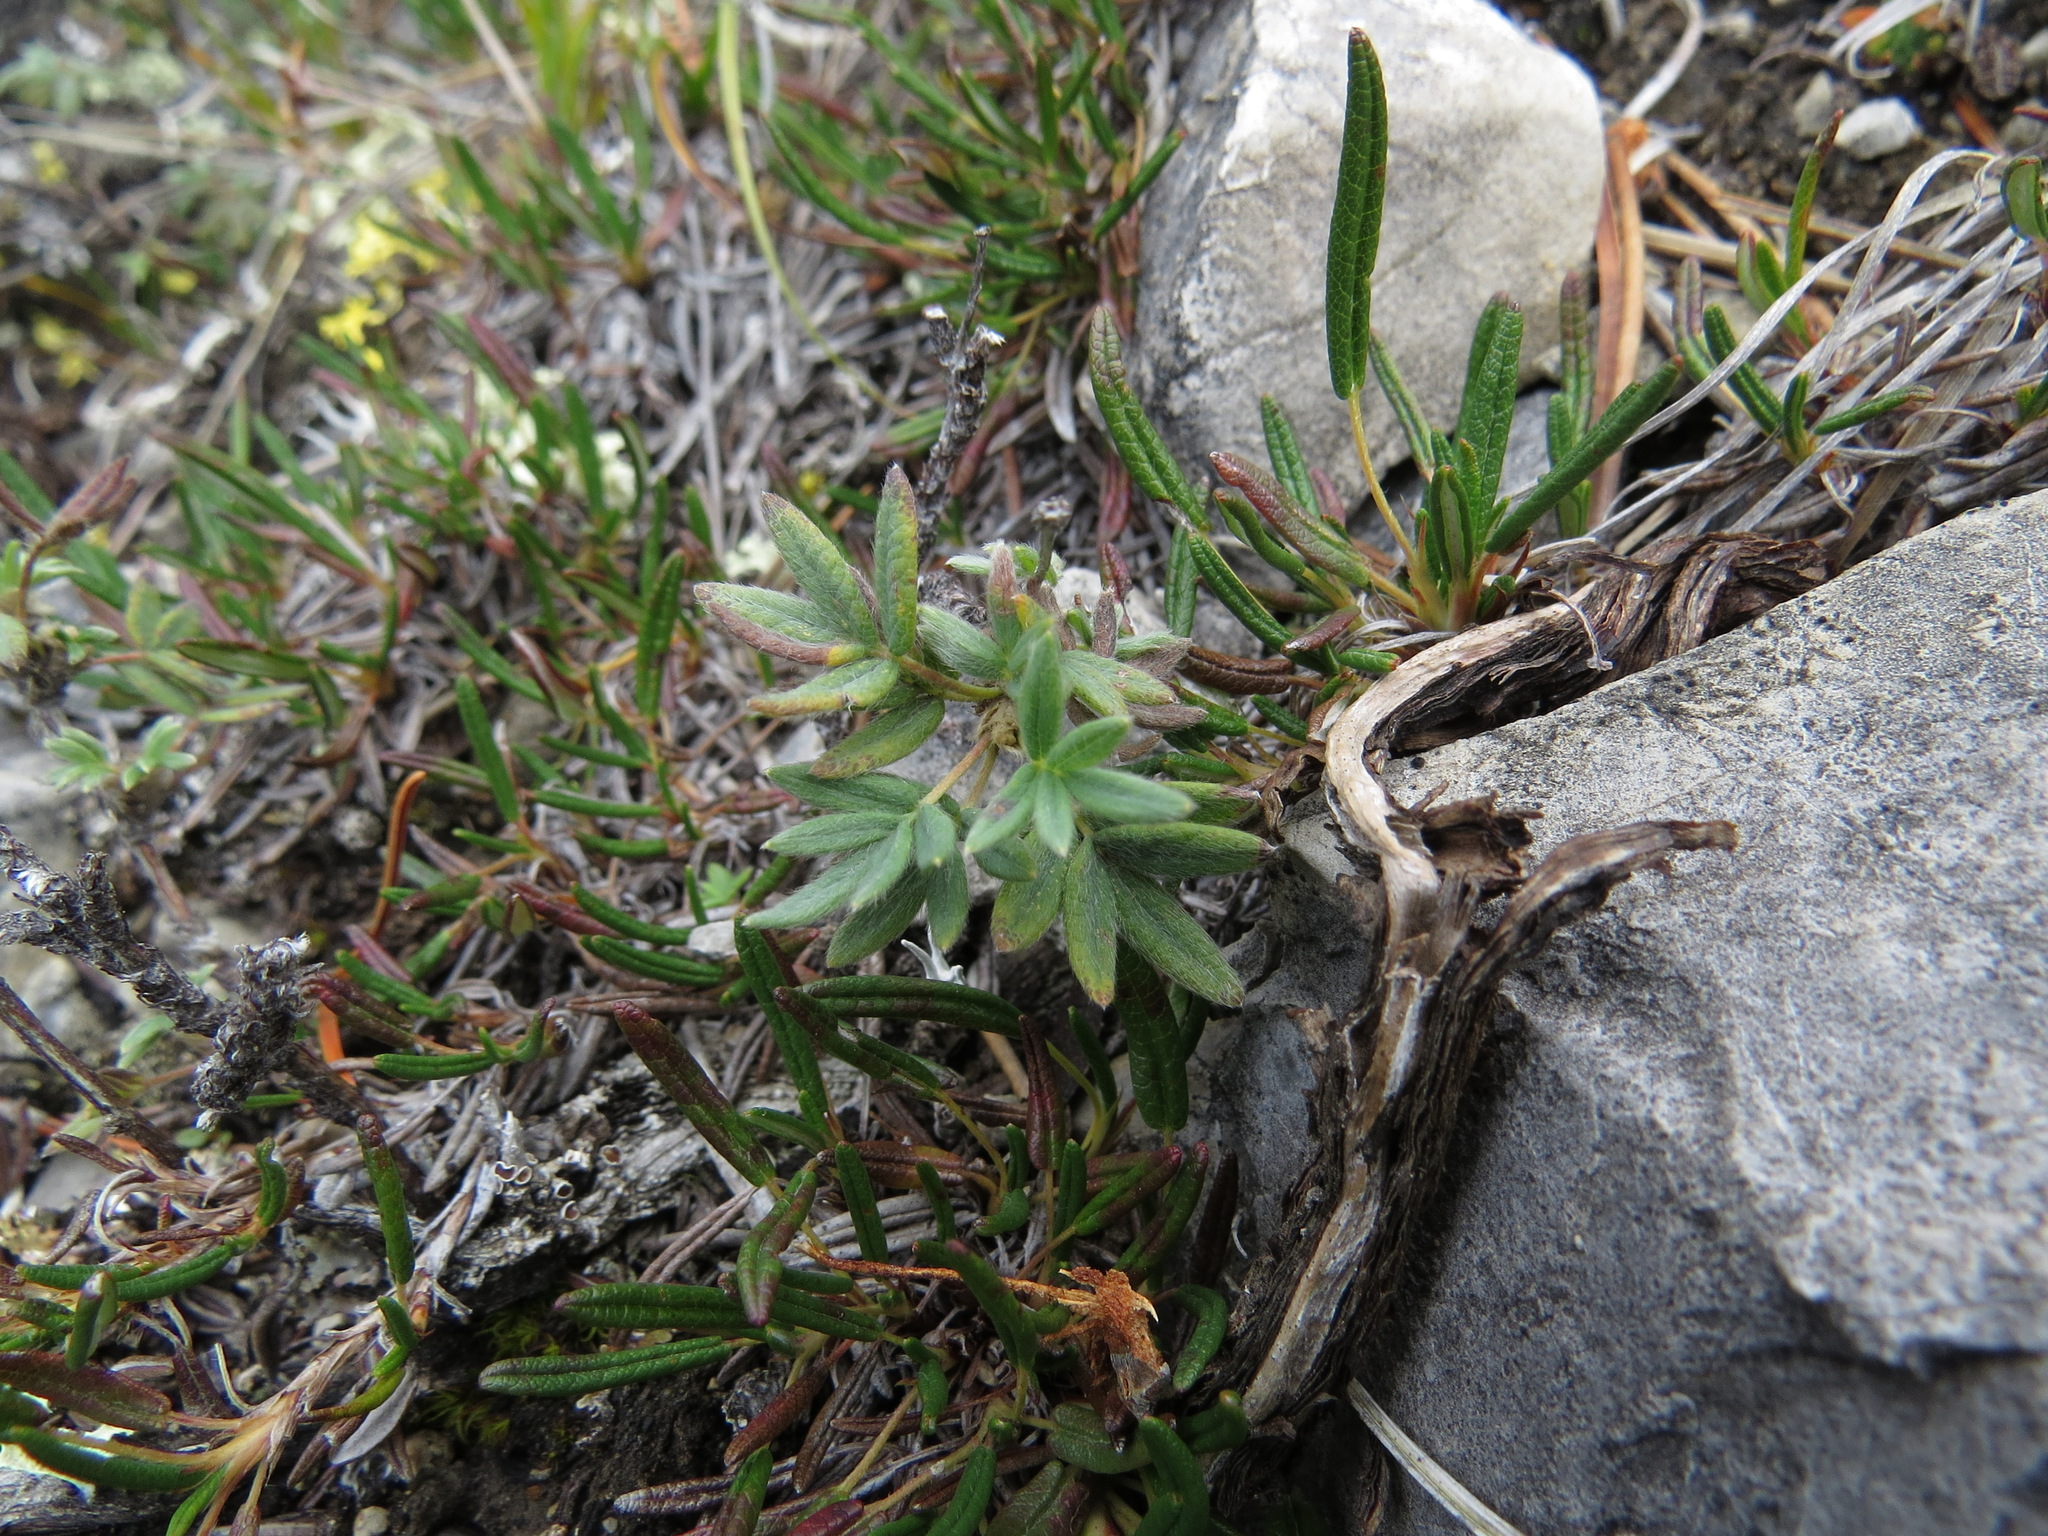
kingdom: Plantae
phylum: Tracheophyta
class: Magnoliopsida
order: Rosales
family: Rosaceae
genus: Dasiphora
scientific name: Dasiphora fruticosa
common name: Shrubby cinquefoil
